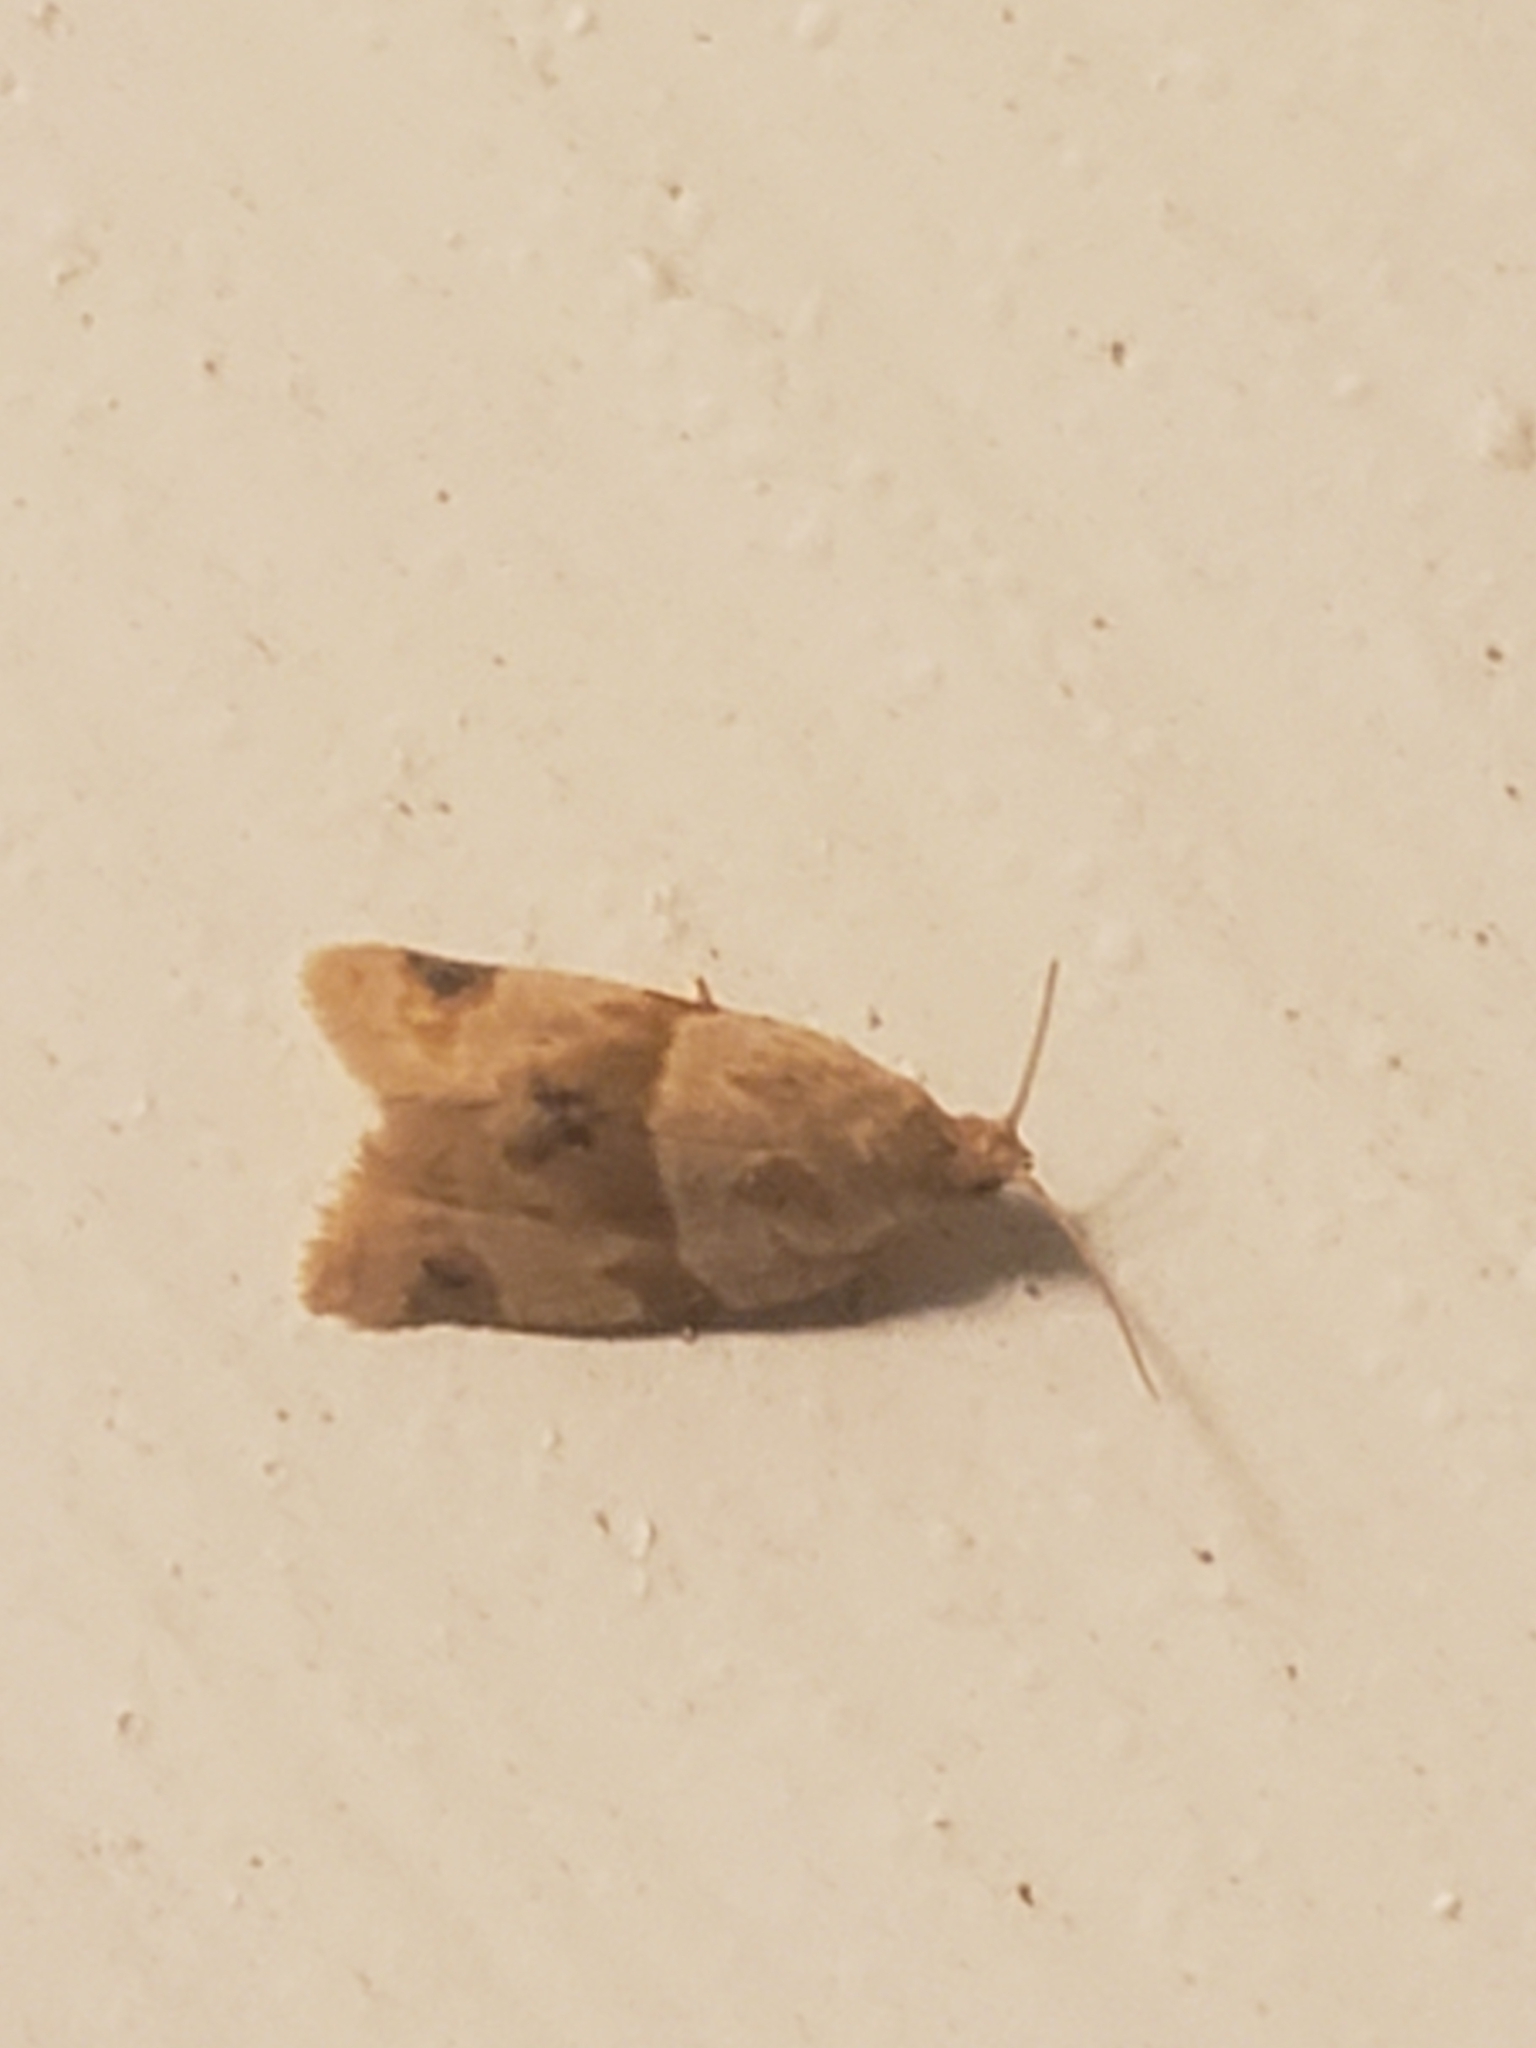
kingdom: Animalia
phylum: Arthropoda
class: Insecta
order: Lepidoptera
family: Tortricidae
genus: Clepsis
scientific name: Clepsis peritana
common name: Garden tortrix
